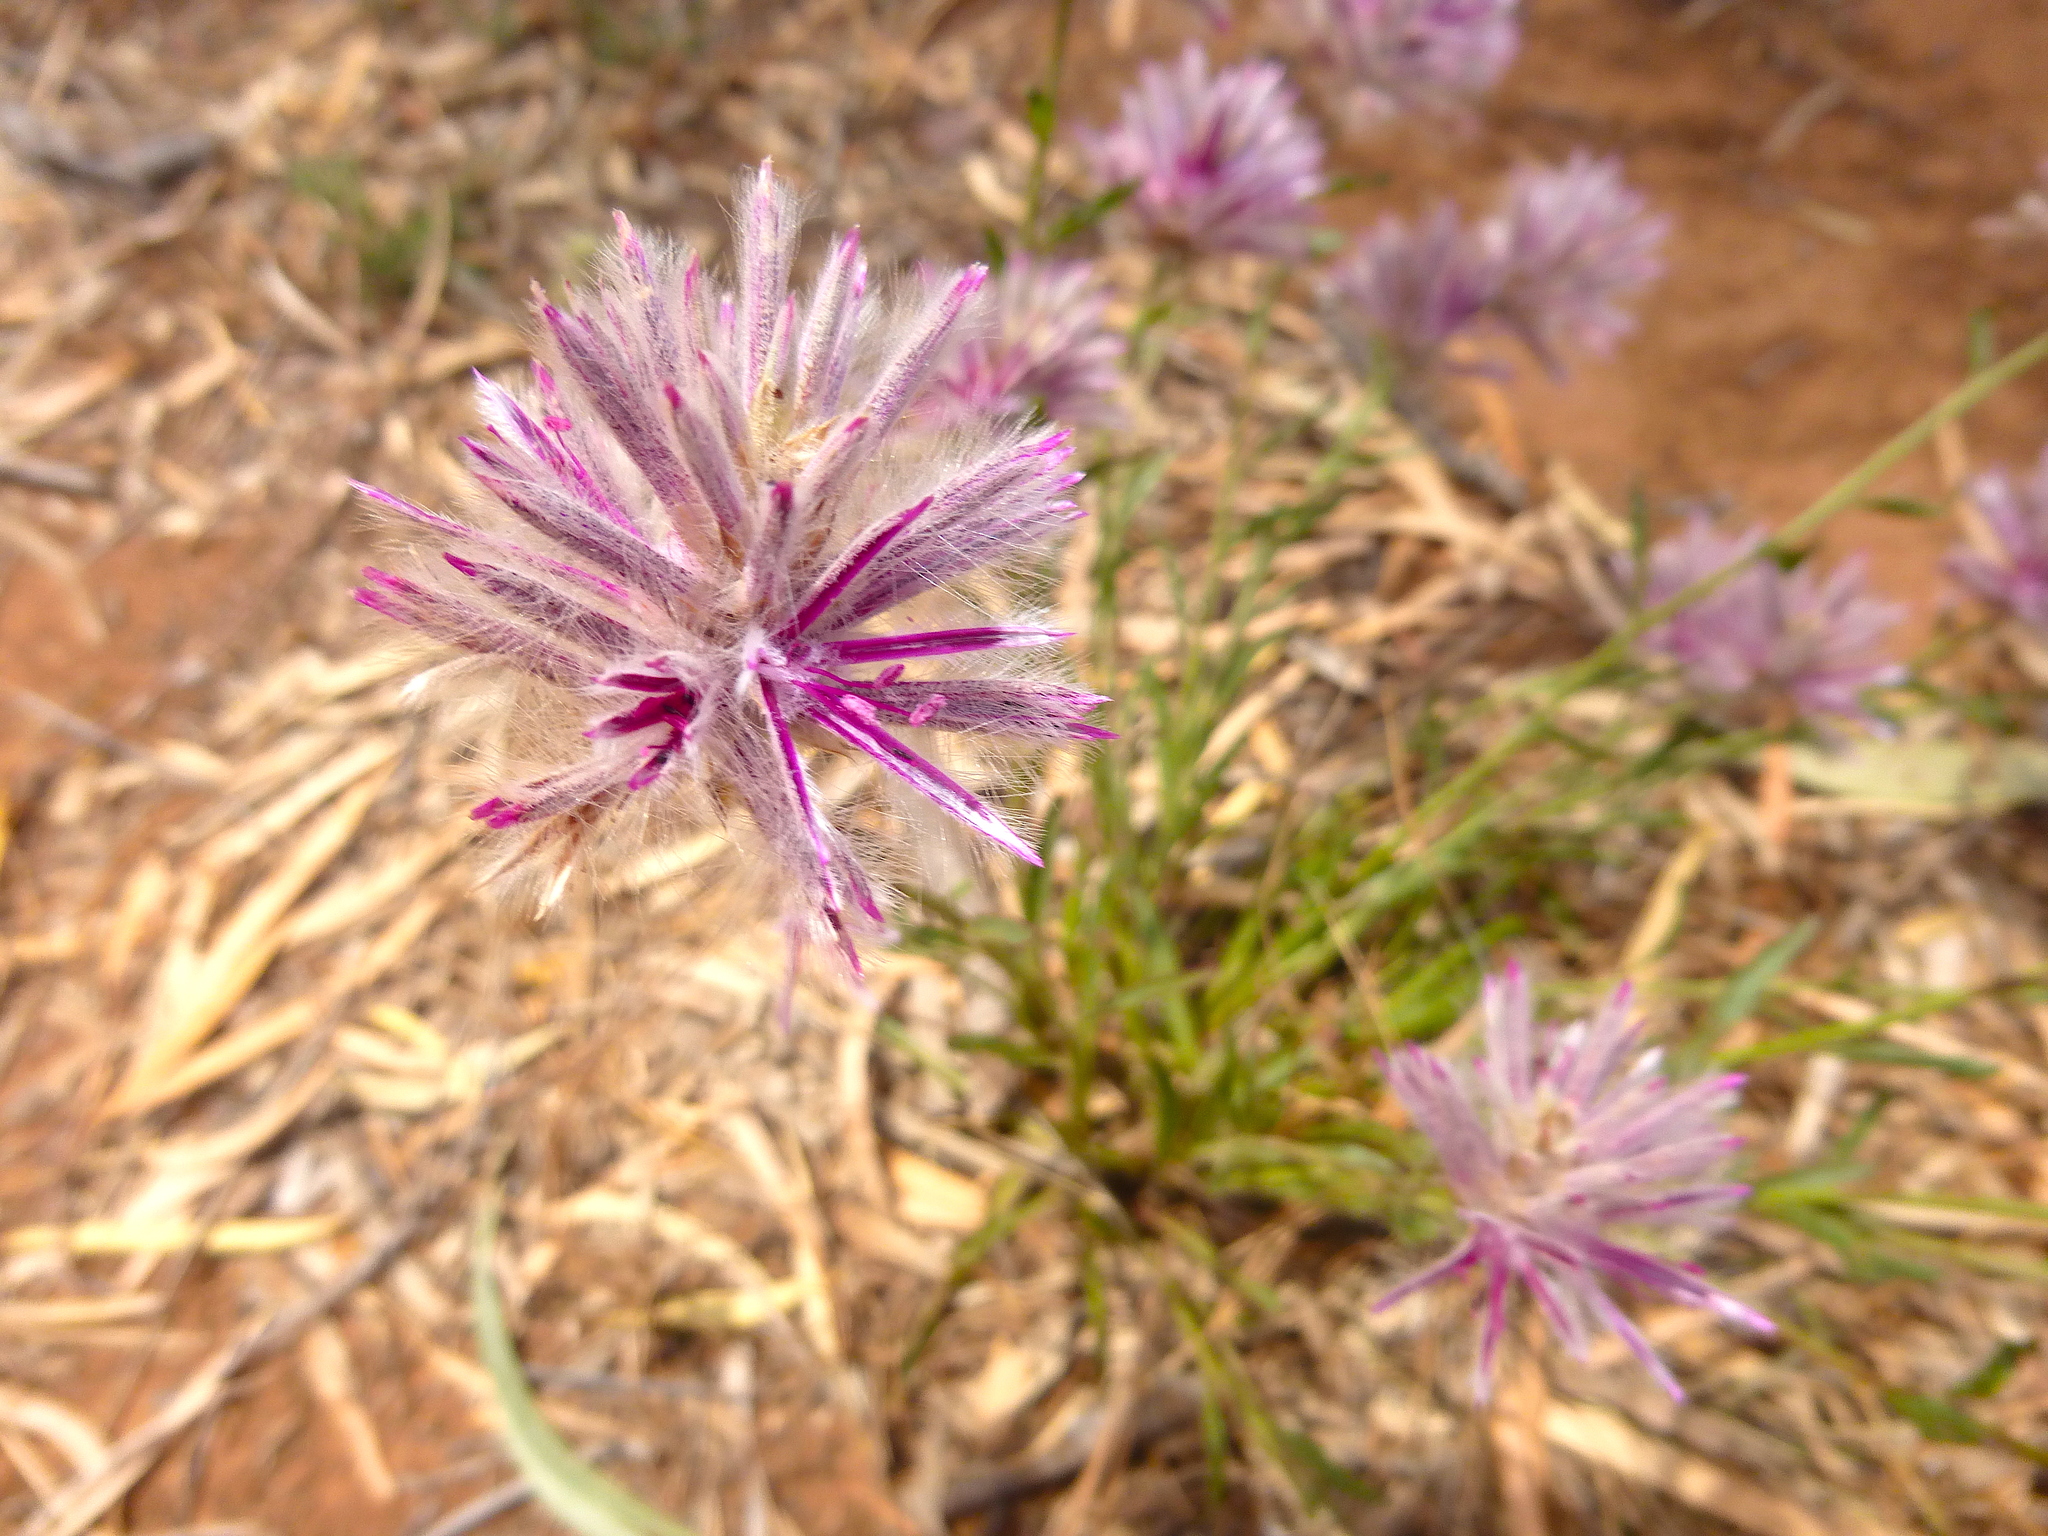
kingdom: Plantae
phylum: Tracheophyta
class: Magnoliopsida
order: Caryophyllales
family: Amaranthaceae
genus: Ptilotus
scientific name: Ptilotus semilanatus
